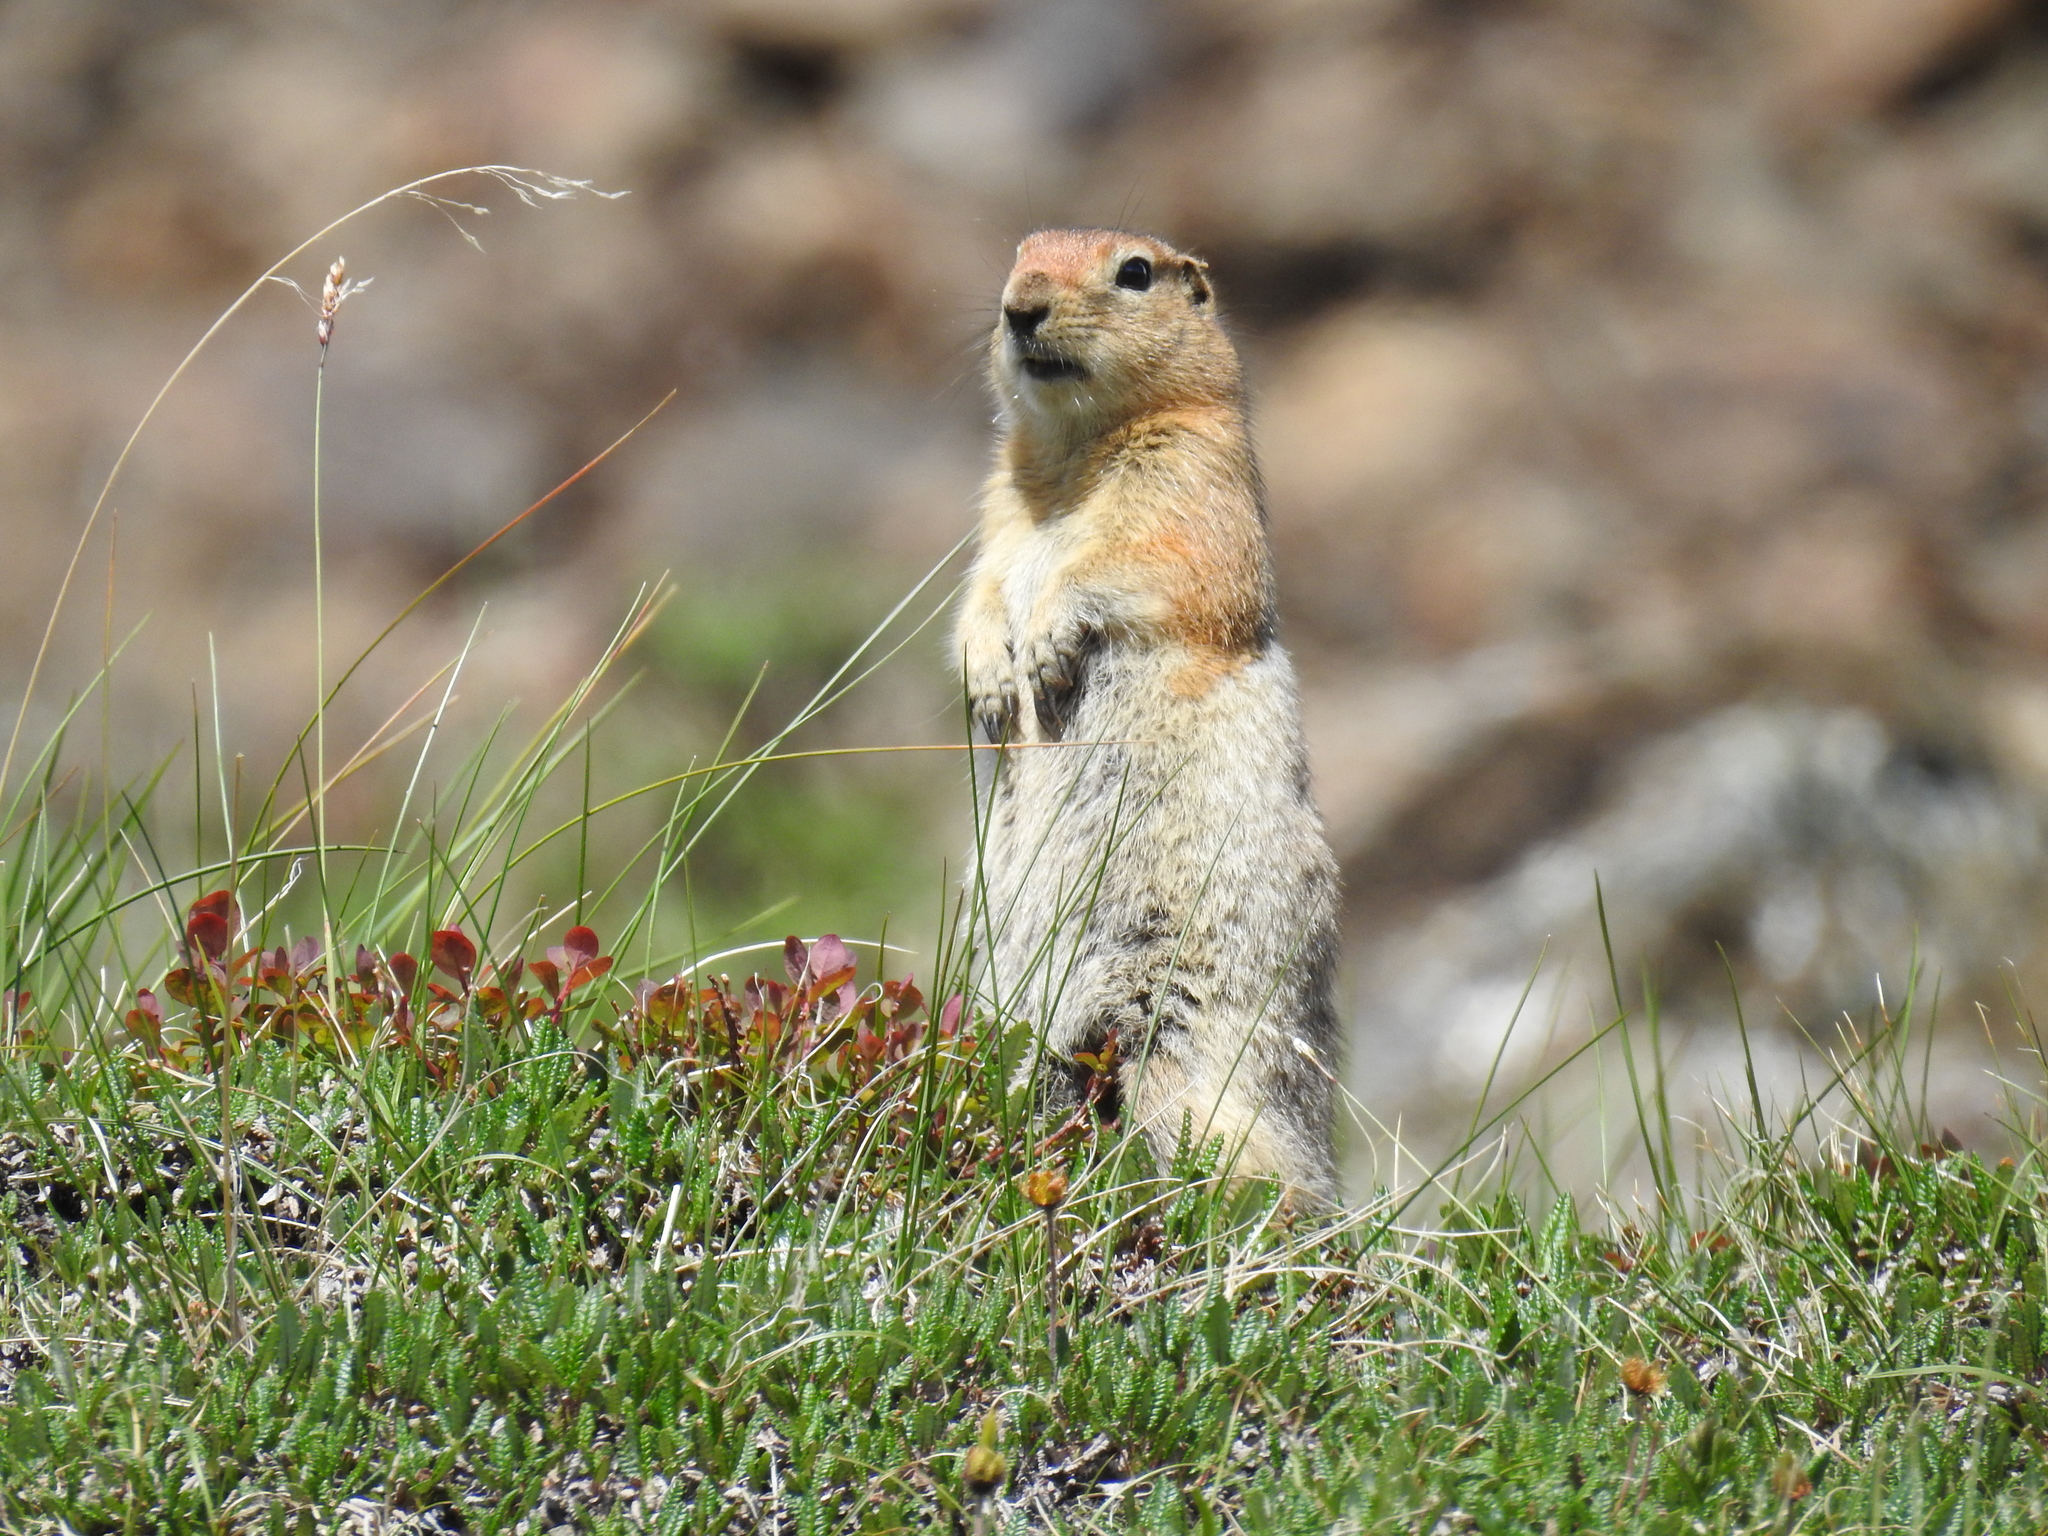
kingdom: Animalia
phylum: Chordata
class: Mammalia
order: Rodentia
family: Sciuridae
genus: Urocitellus
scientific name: Urocitellus parryii
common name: Arctic ground squirrel
